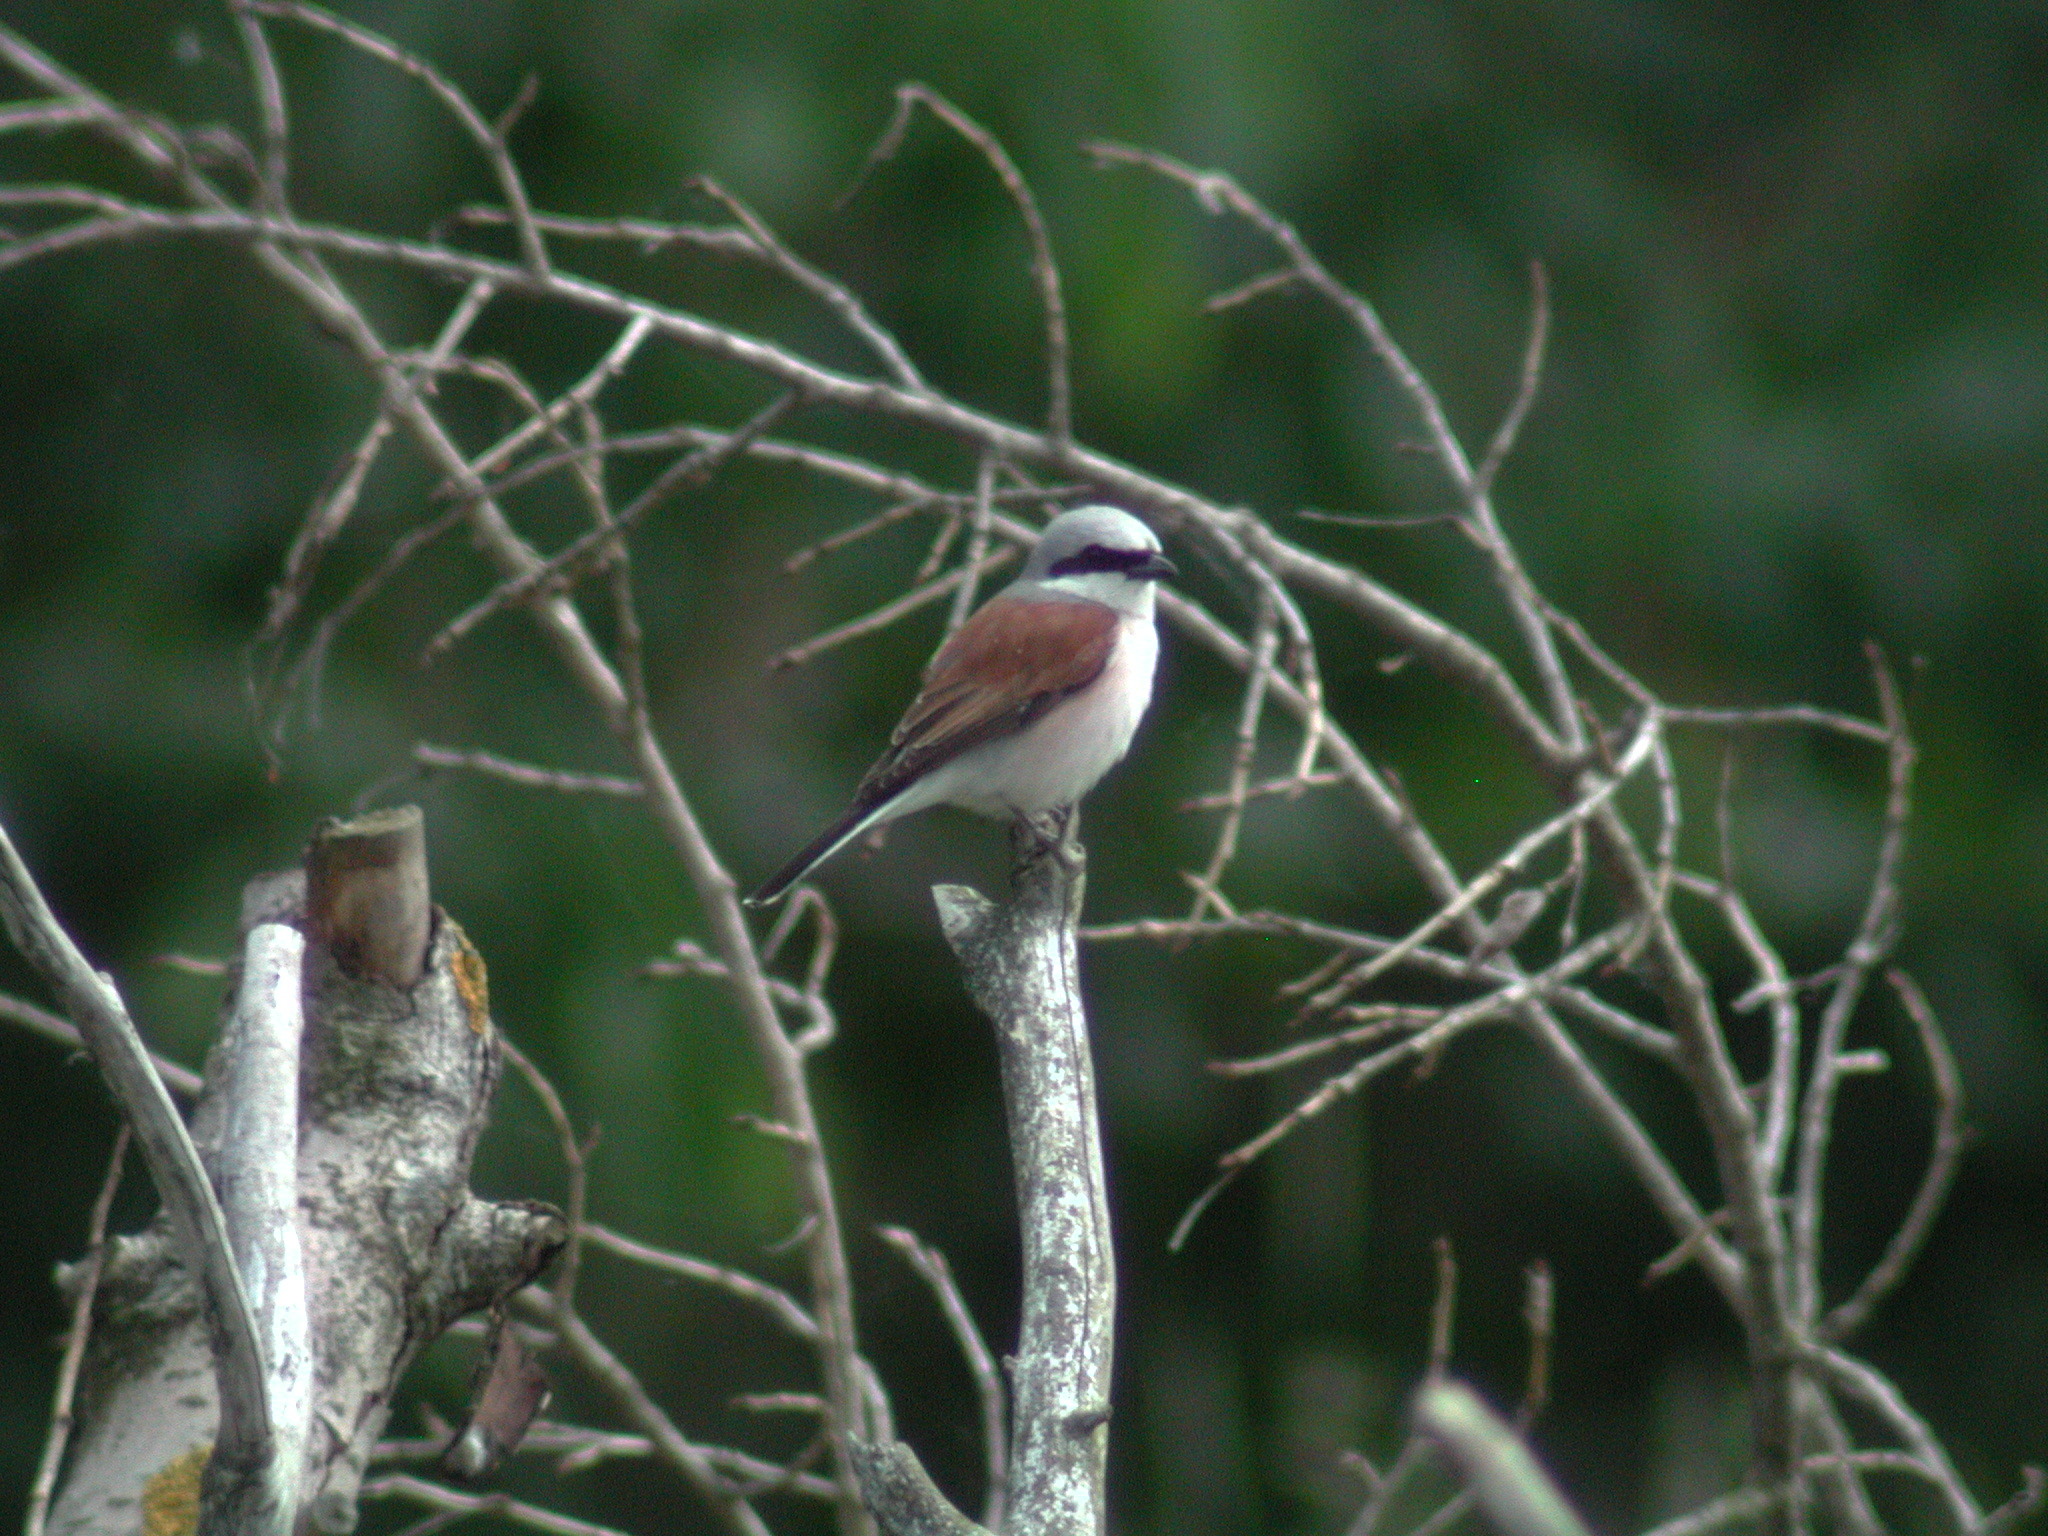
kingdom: Animalia
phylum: Chordata
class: Aves
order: Passeriformes
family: Laniidae
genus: Lanius
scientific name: Lanius collurio
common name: Red-backed shrike
